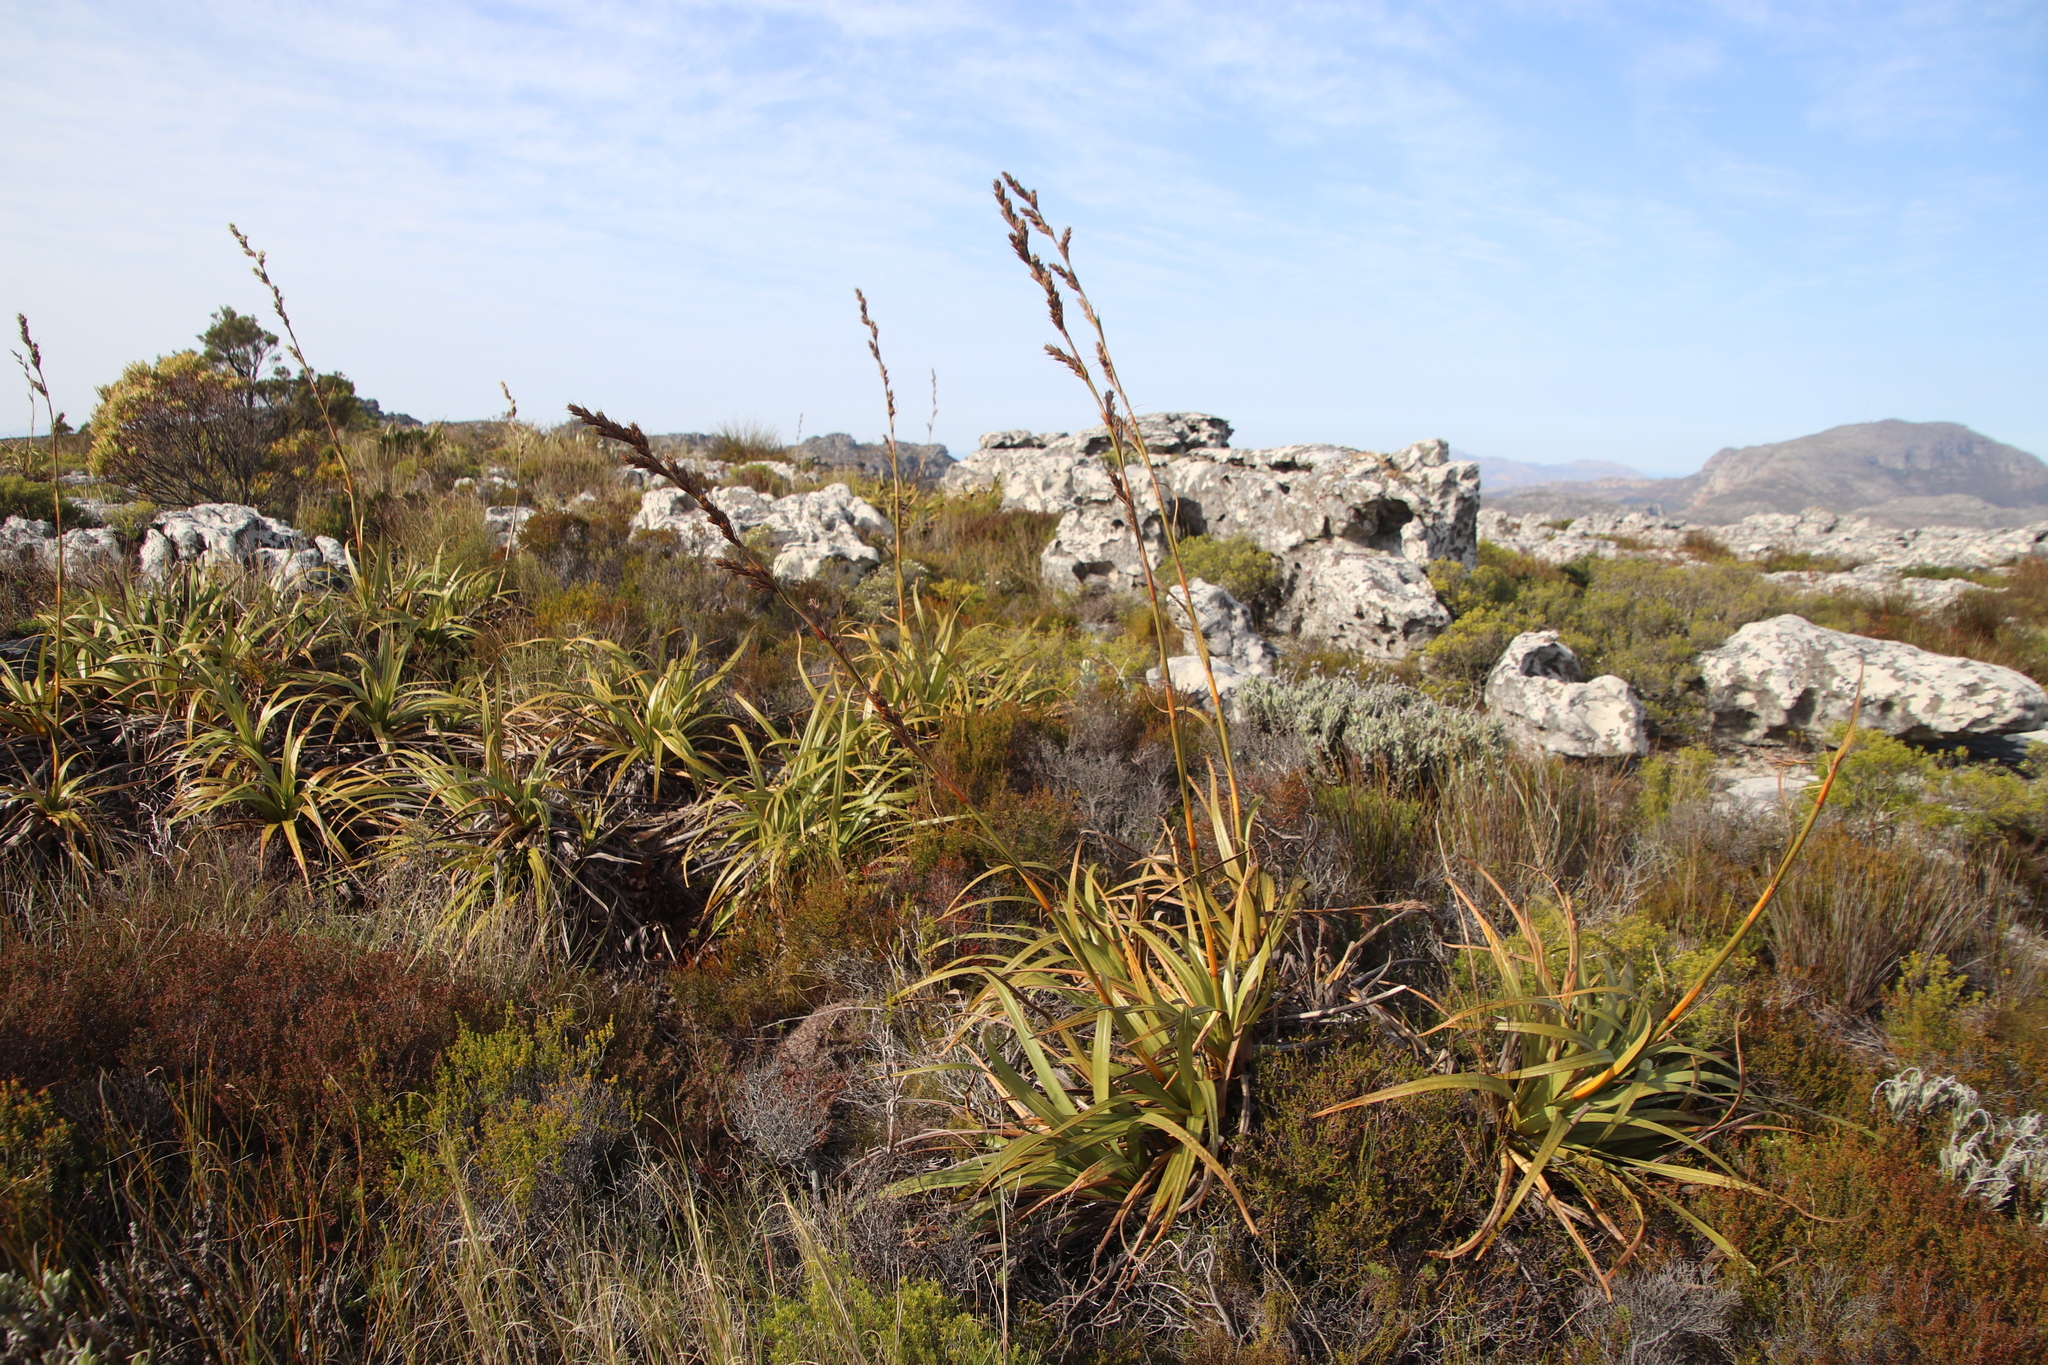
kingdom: Plantae
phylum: Tracheophyta
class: Liliopsida
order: Poales
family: Cyperaceae
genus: Tetraria
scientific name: Tetraria thermalis
